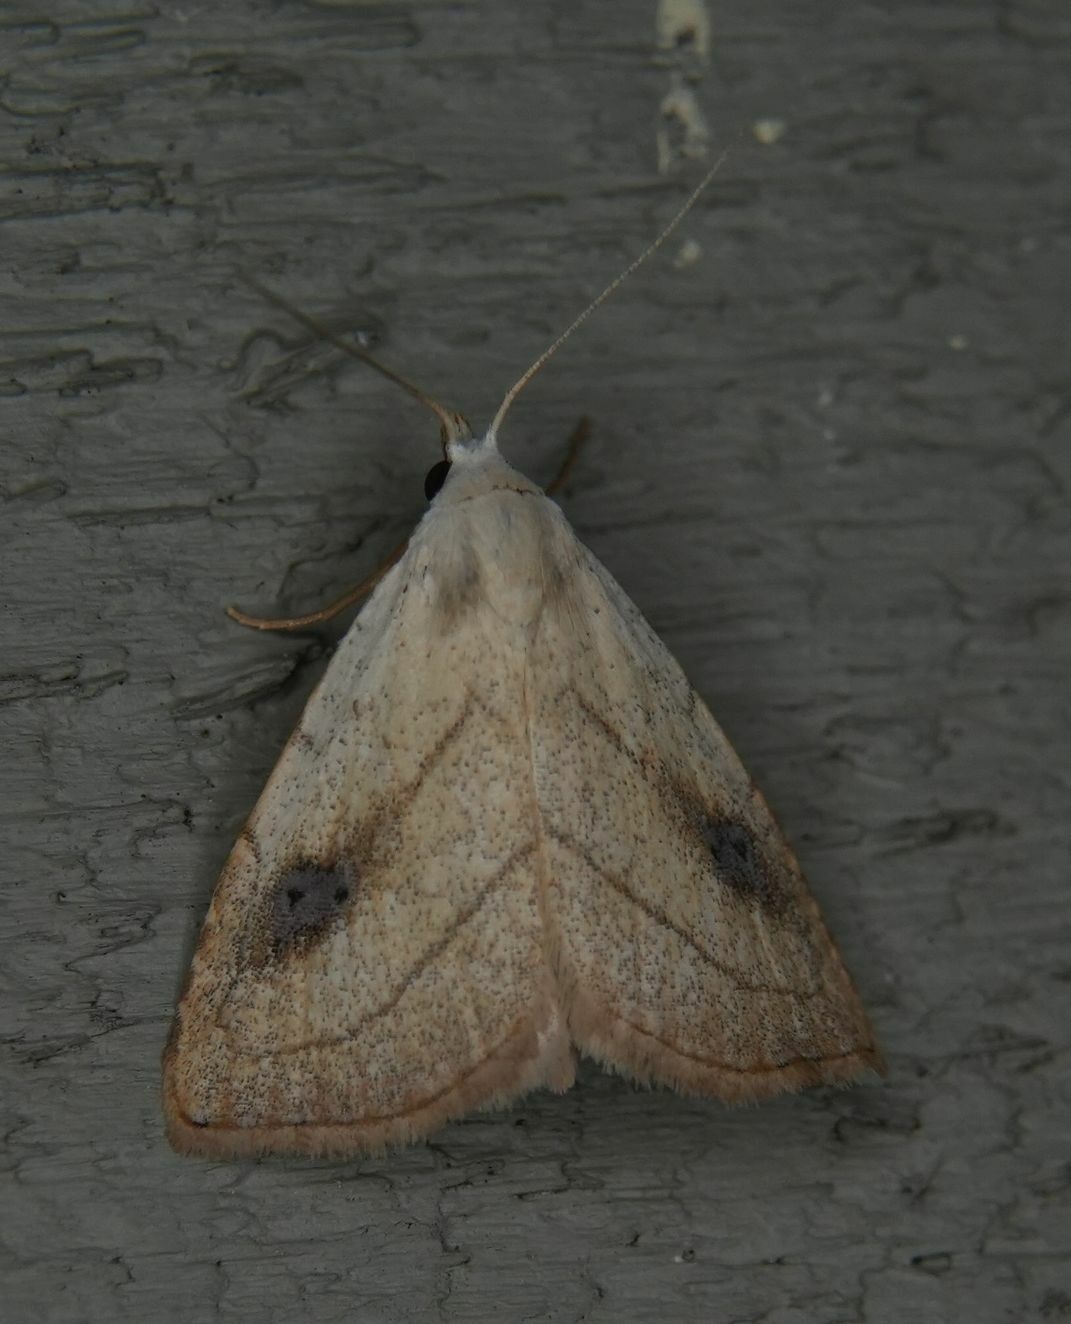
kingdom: Animalia
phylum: Arthropoda
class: Insecta
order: Lepidoptera
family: Erebidae
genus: Rivula
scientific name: Rivula propinqualis
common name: Spotted grass moth
